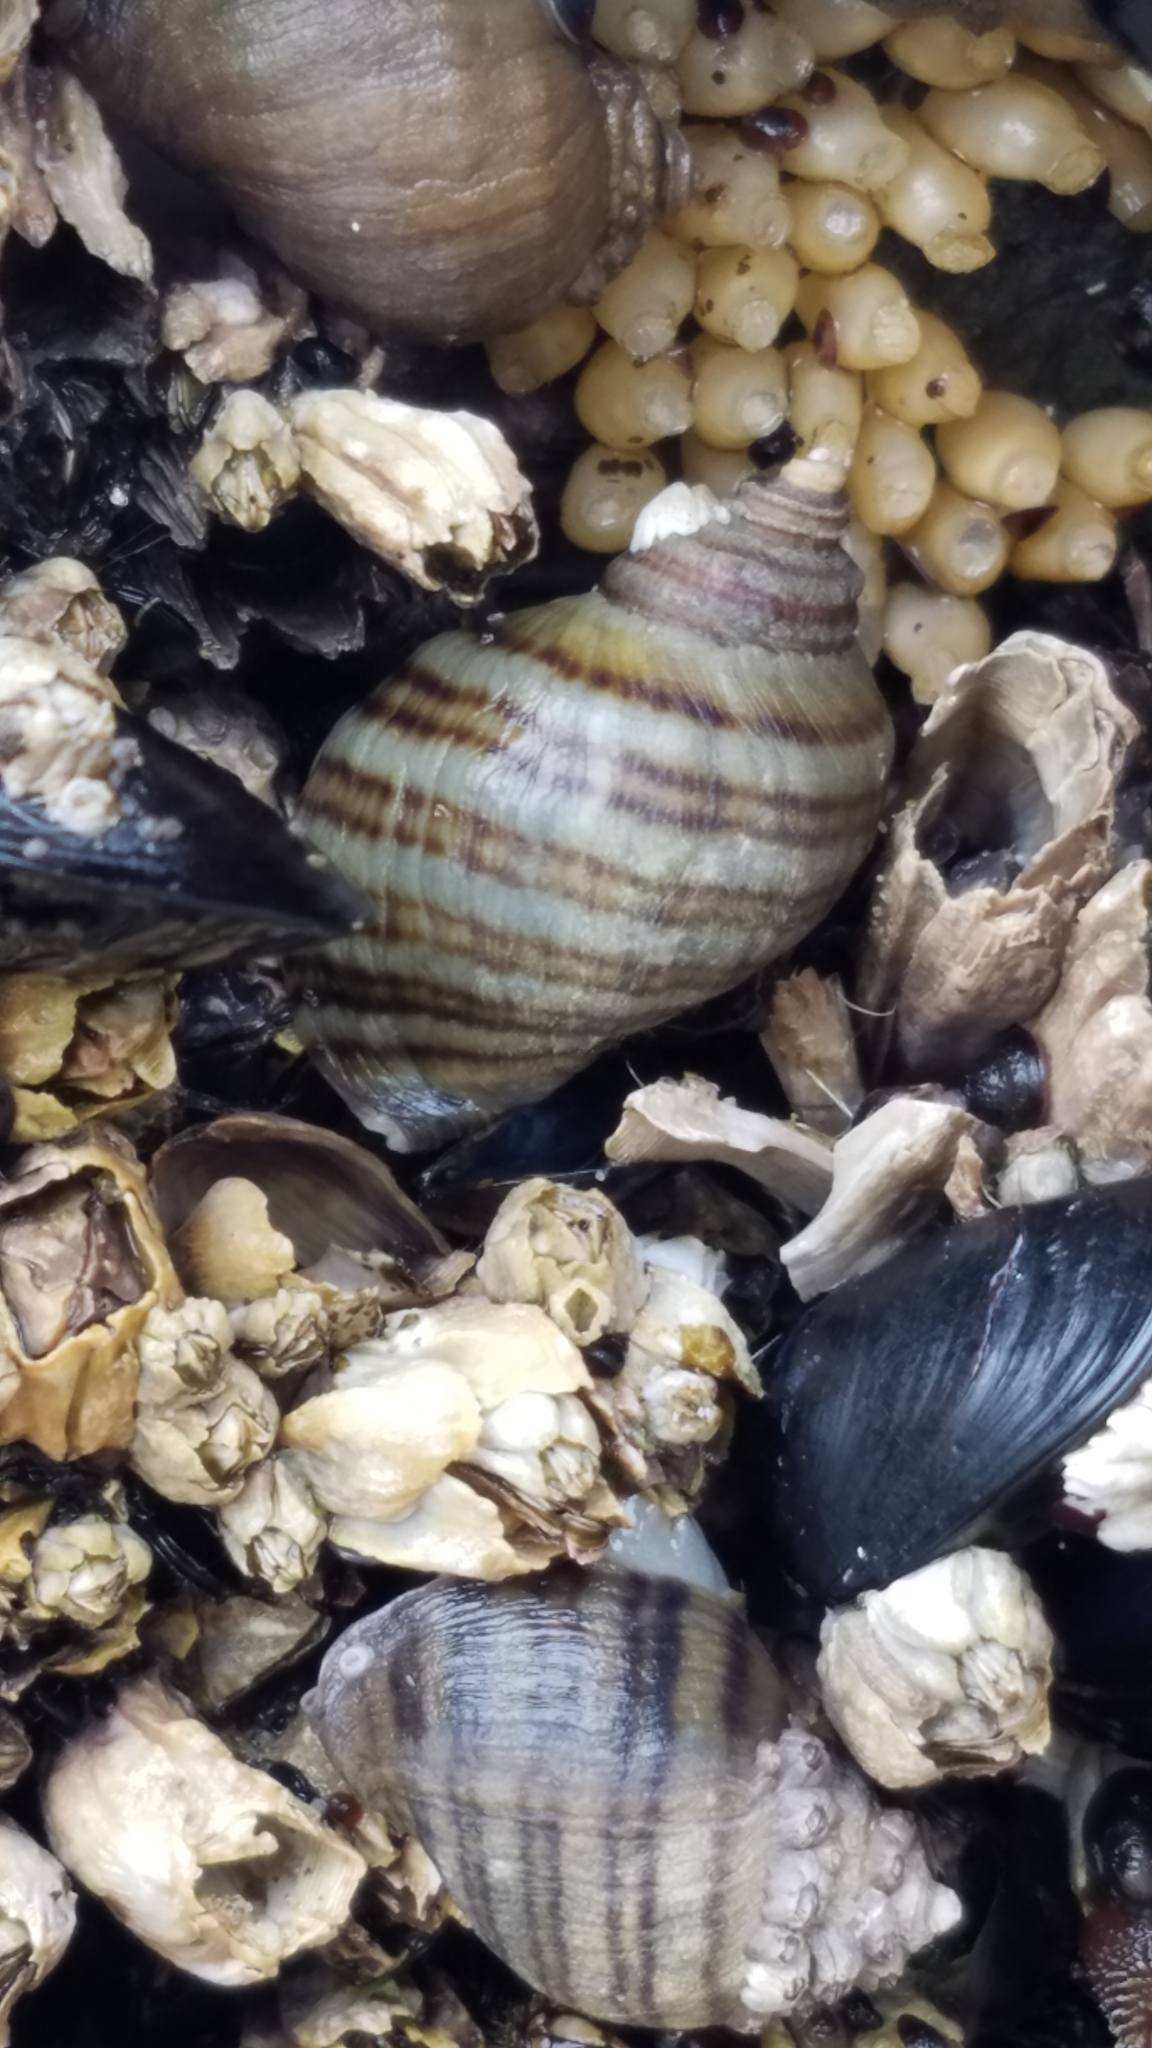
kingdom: Animalia
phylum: Mollusca
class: Gastropoda
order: Neogastropoda
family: Muricidae
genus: Nucella
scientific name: Nucella ostrina
